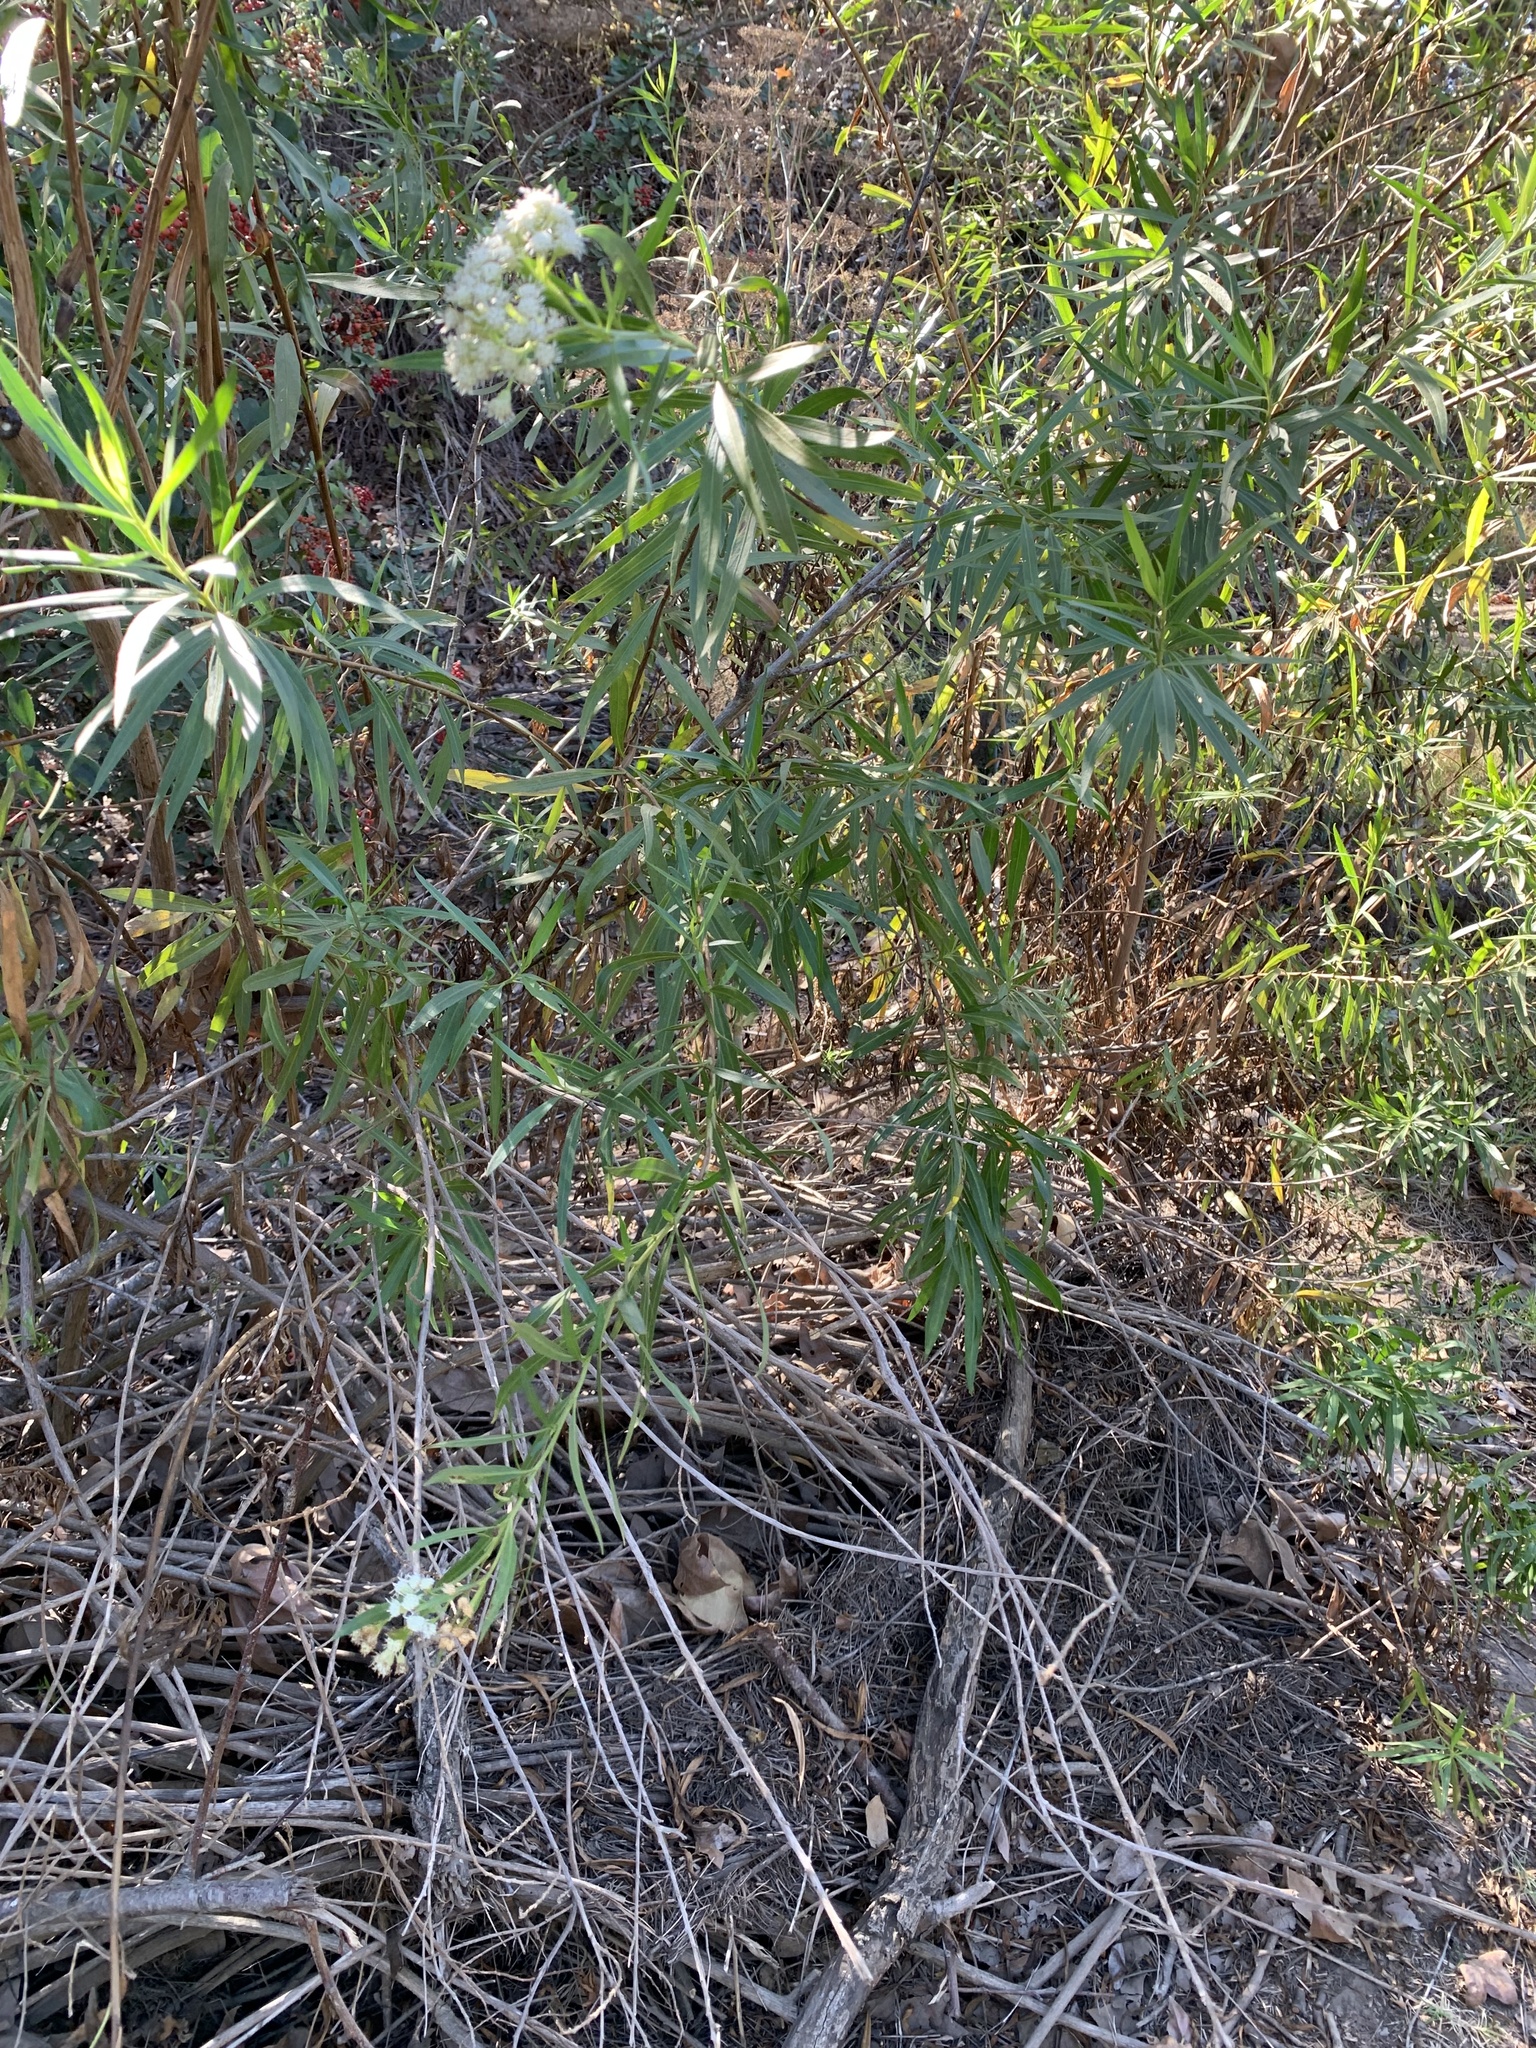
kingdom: Plantae
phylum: Tracheophyta
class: Magnoliopsida
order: Asterales
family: Asteraceae
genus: Baccharis
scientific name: Baccharis salicifolia
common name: Sticky baccharis
